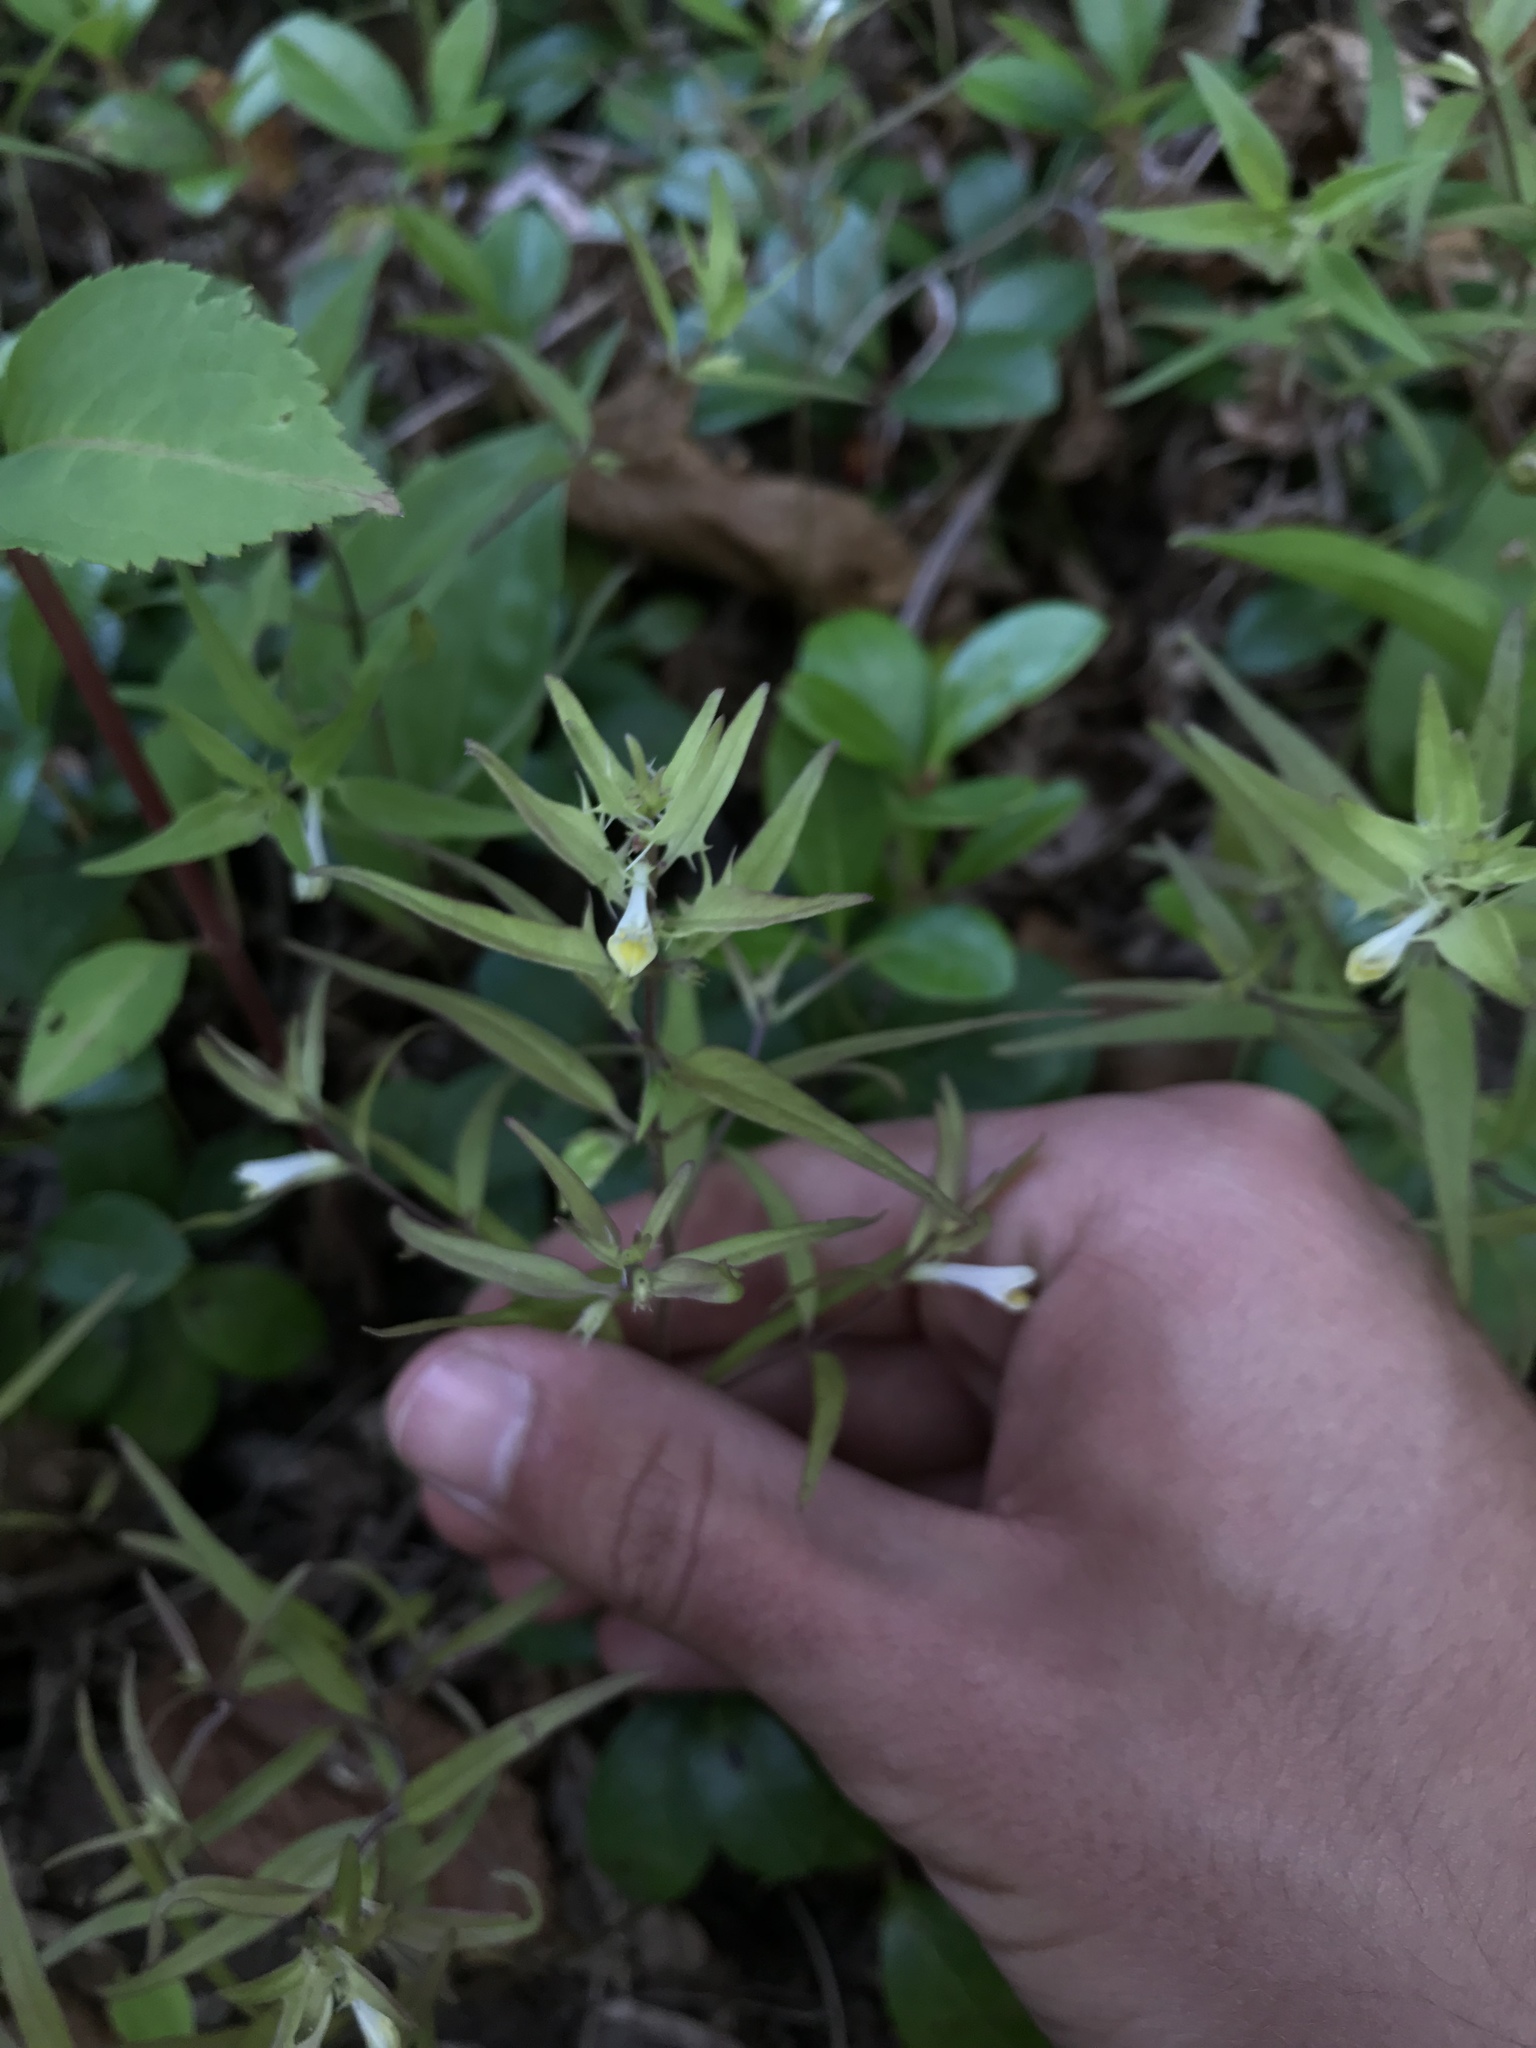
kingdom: Plantae
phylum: Tracheophyta
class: Magnoliopsida
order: Lamiales
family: Orobanchaceae
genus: Melampyrum
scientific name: Melampyrum lineare
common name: American cow-wheat
